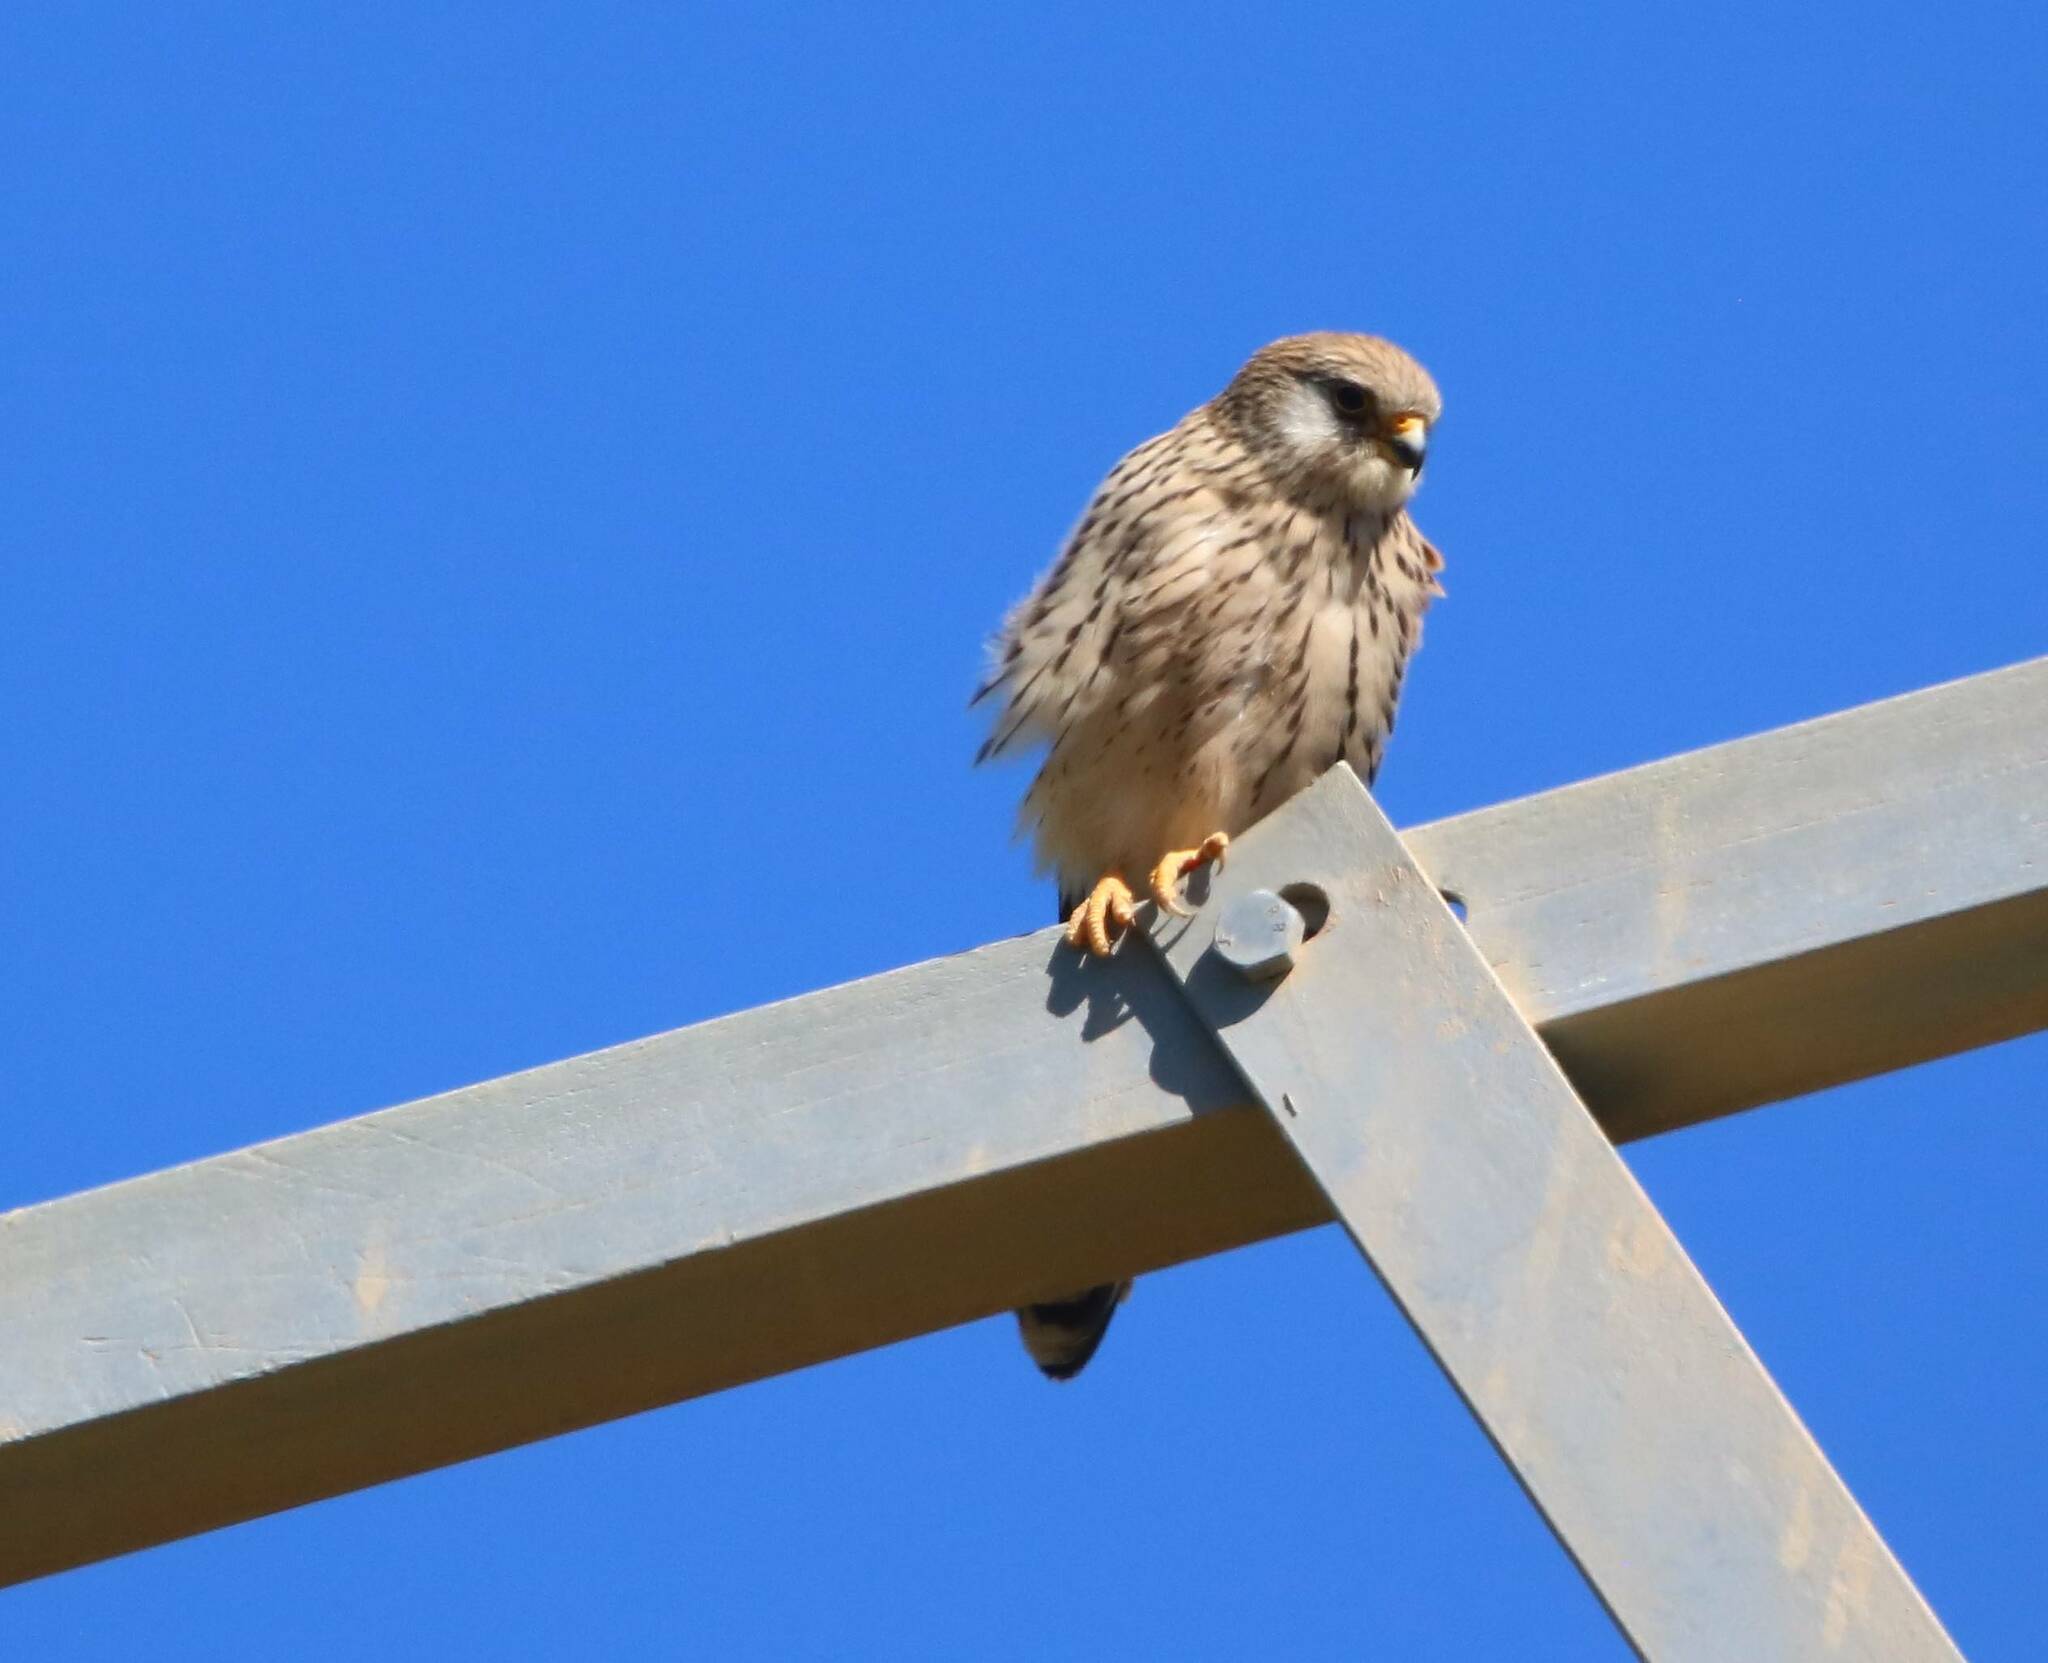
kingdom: Animalia
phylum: Chordata
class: Aves
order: Falconiformes
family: Falconidae
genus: Falco
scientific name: Falco tinnunculus
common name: Common kestrel
